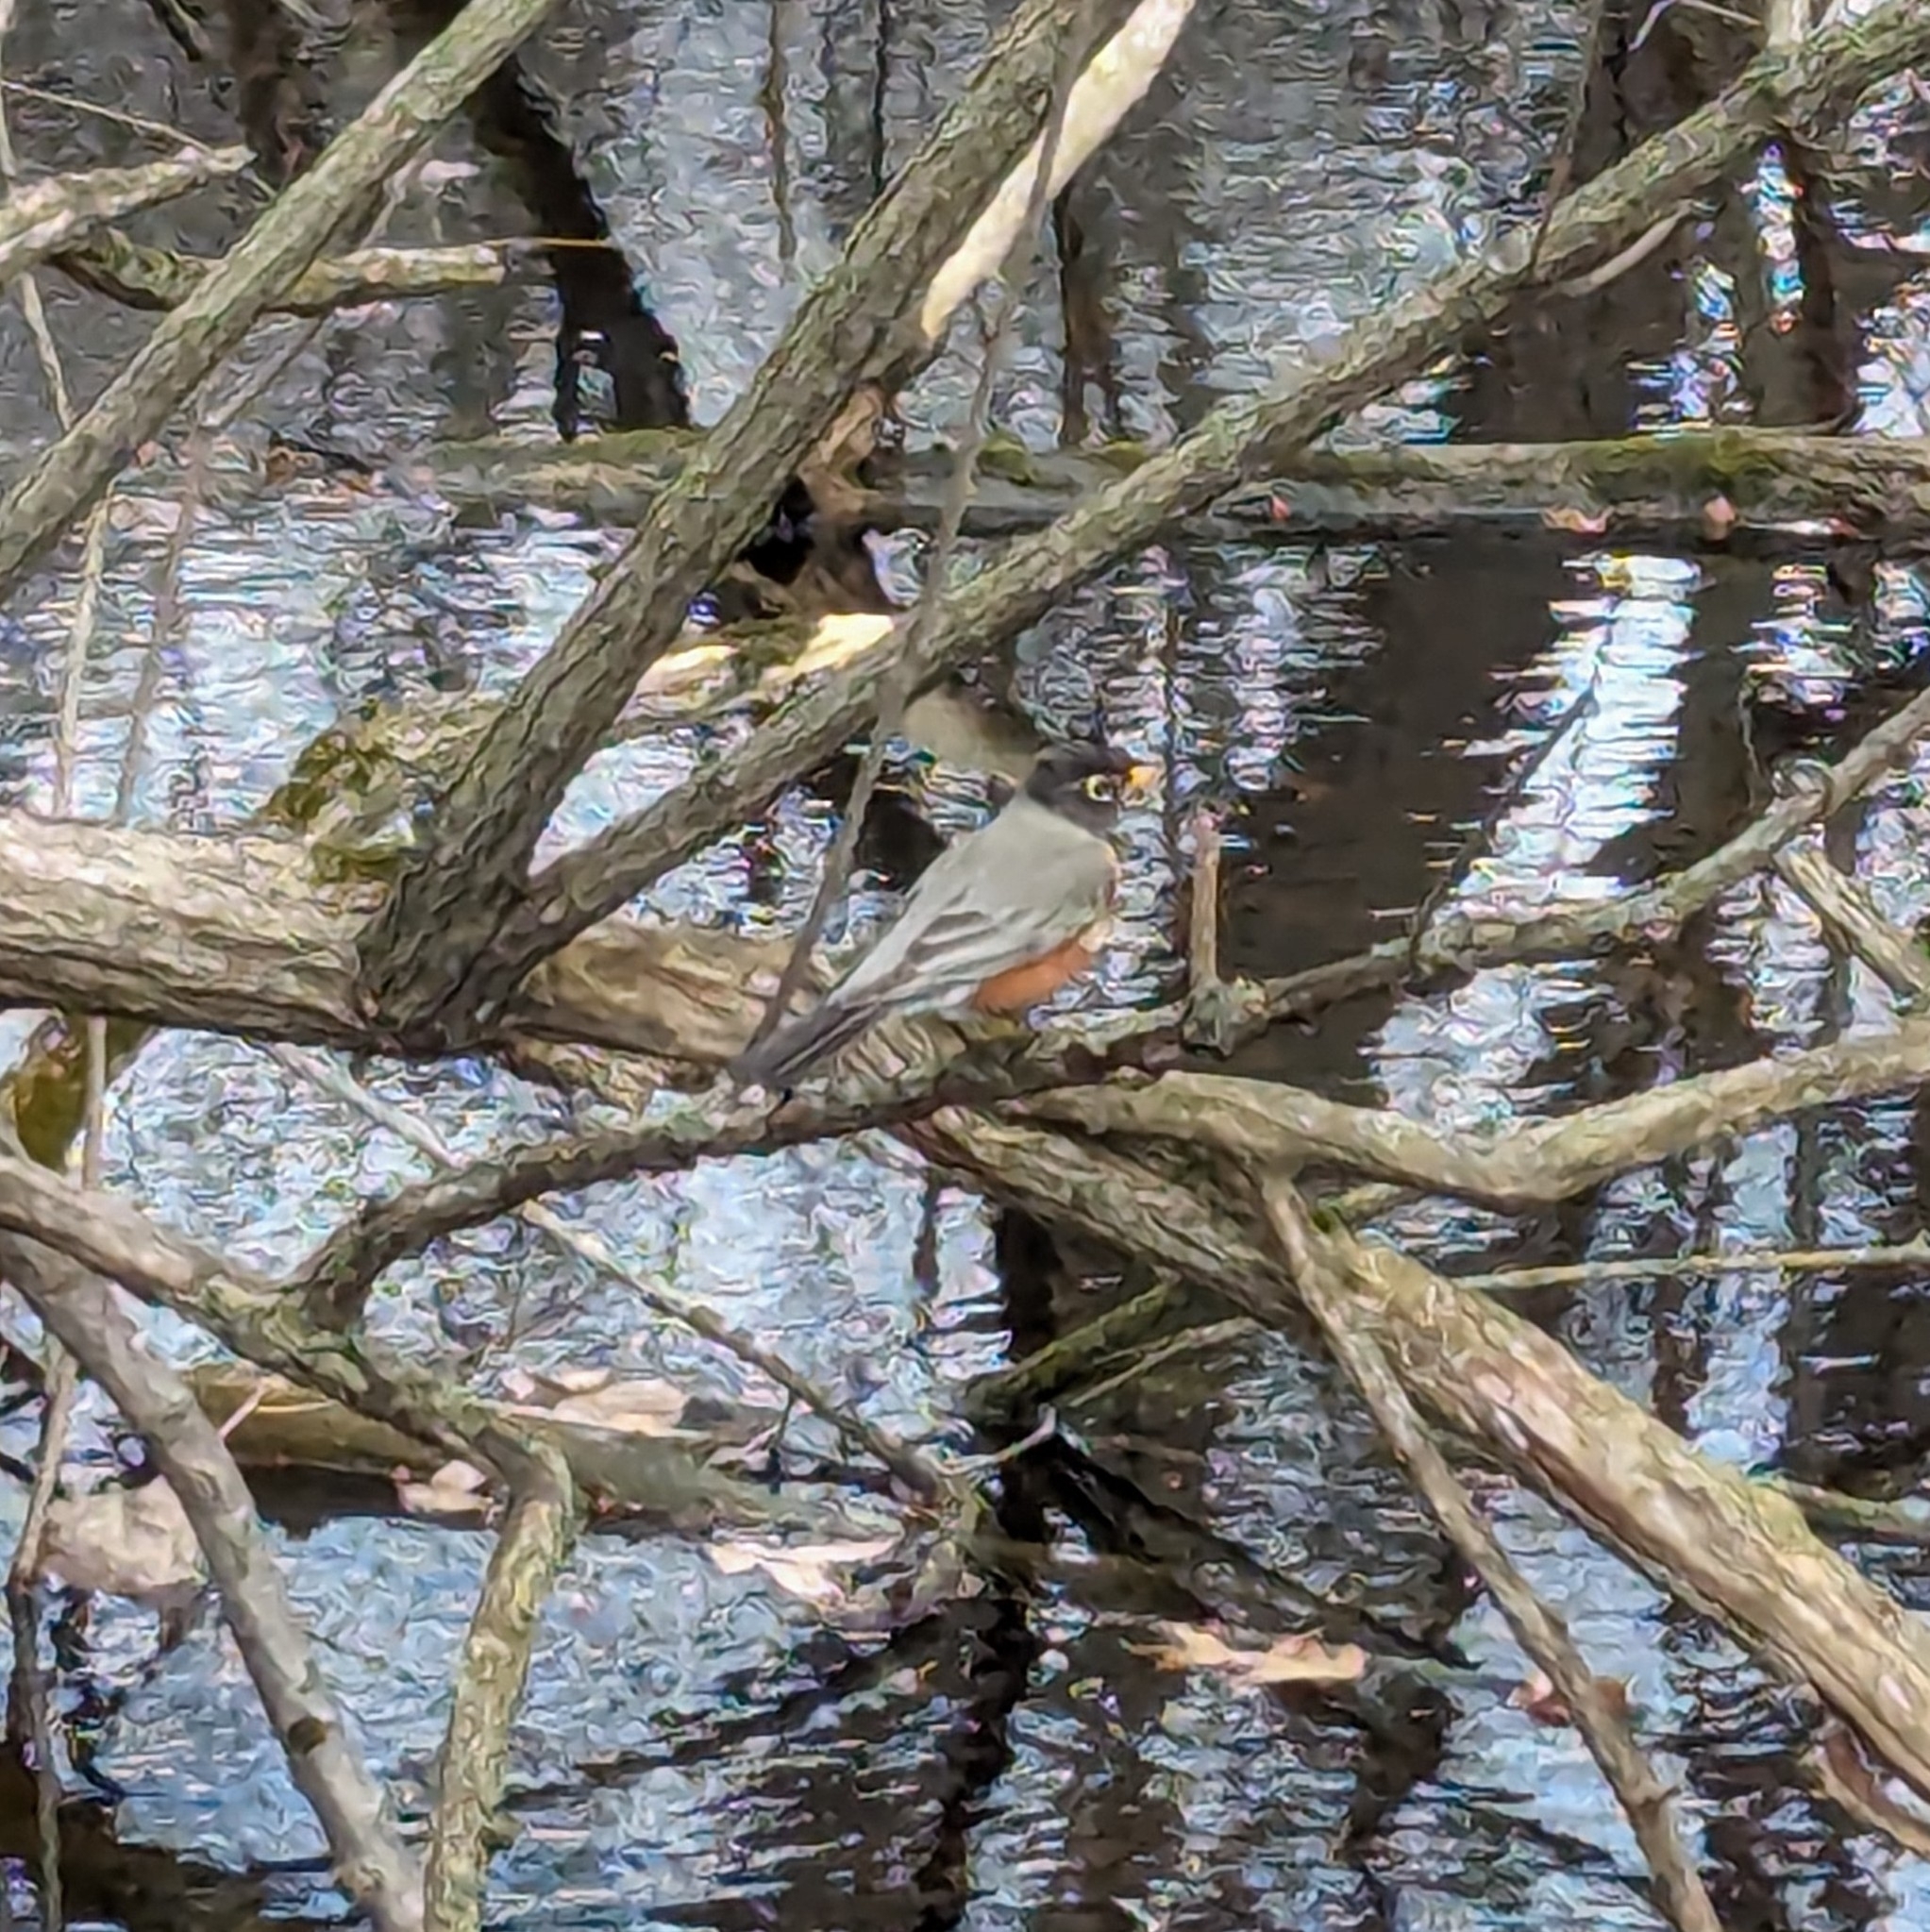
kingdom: Animalia
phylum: Chordata
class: Aves
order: Passeriformes
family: Turdidae
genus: Turdus
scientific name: Turdus migratorius
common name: American robin
